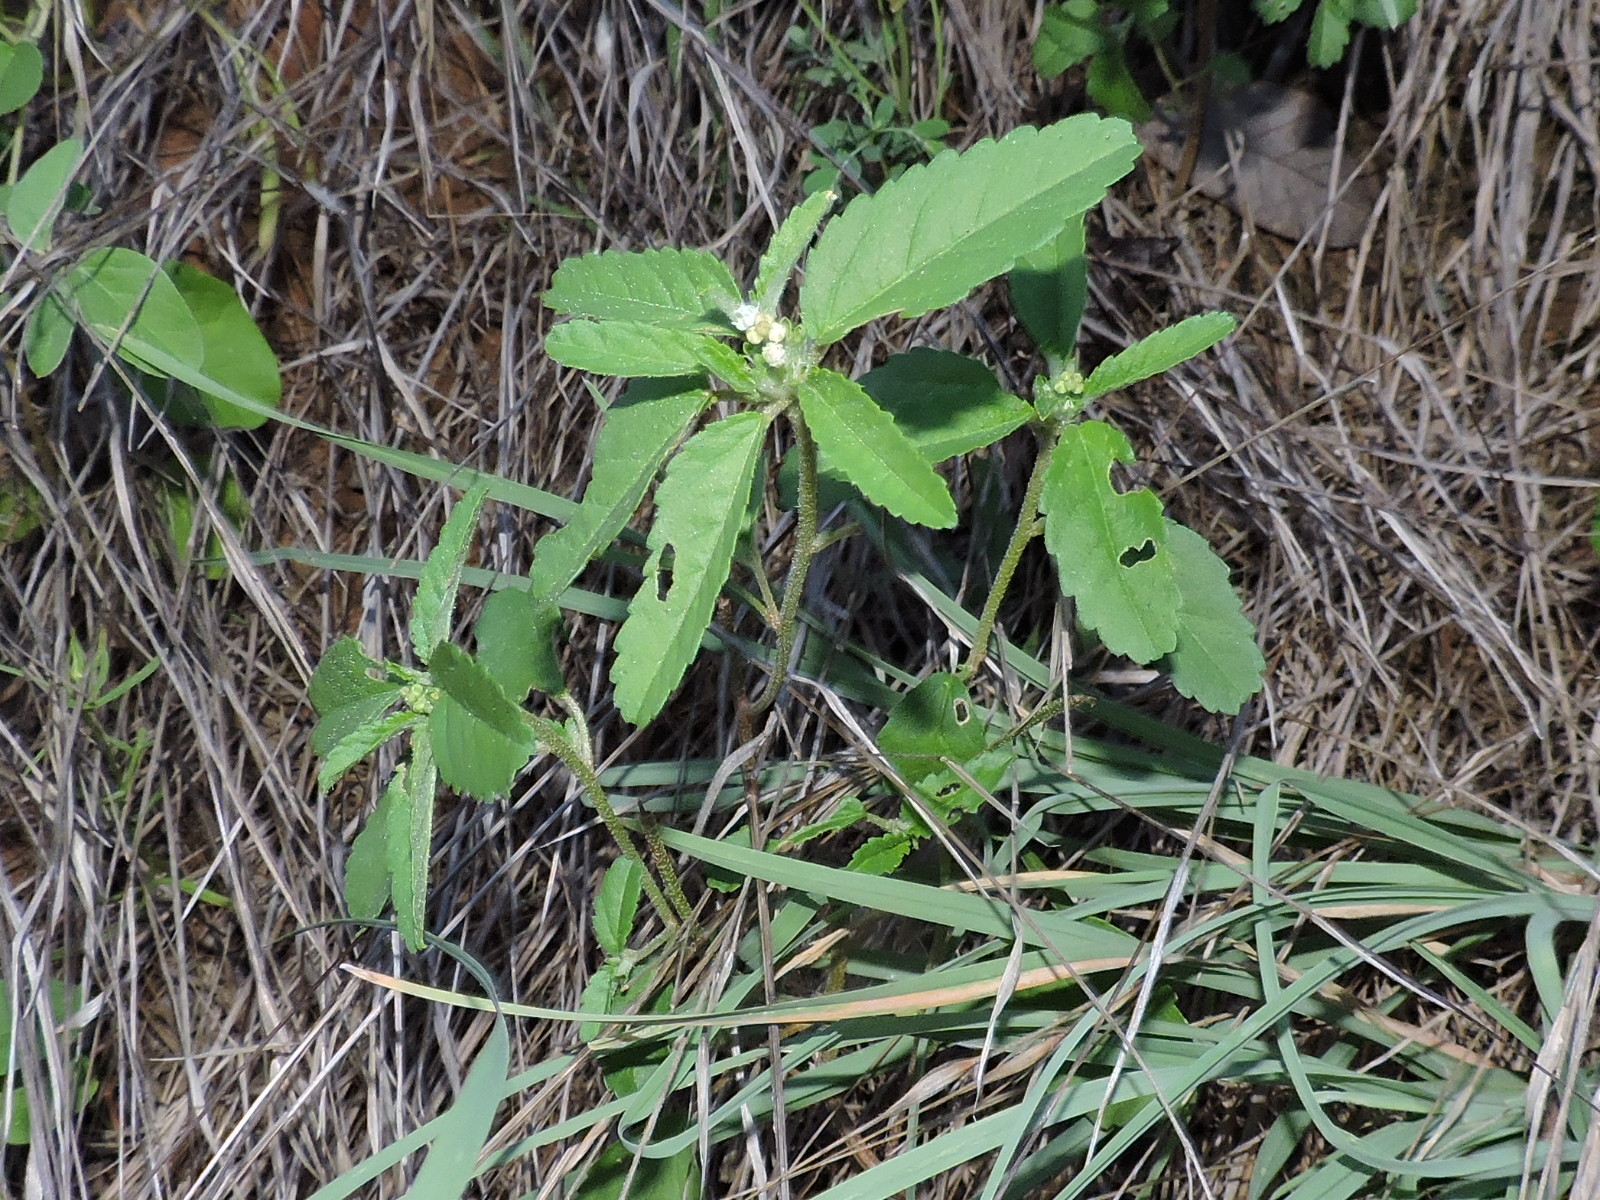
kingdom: Plantae
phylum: Tracheophyta
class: Magnoliopsida
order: Malpighiales
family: Euphorbiaceae
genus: Croton
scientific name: Croton glandulosus
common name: Tropic croton
